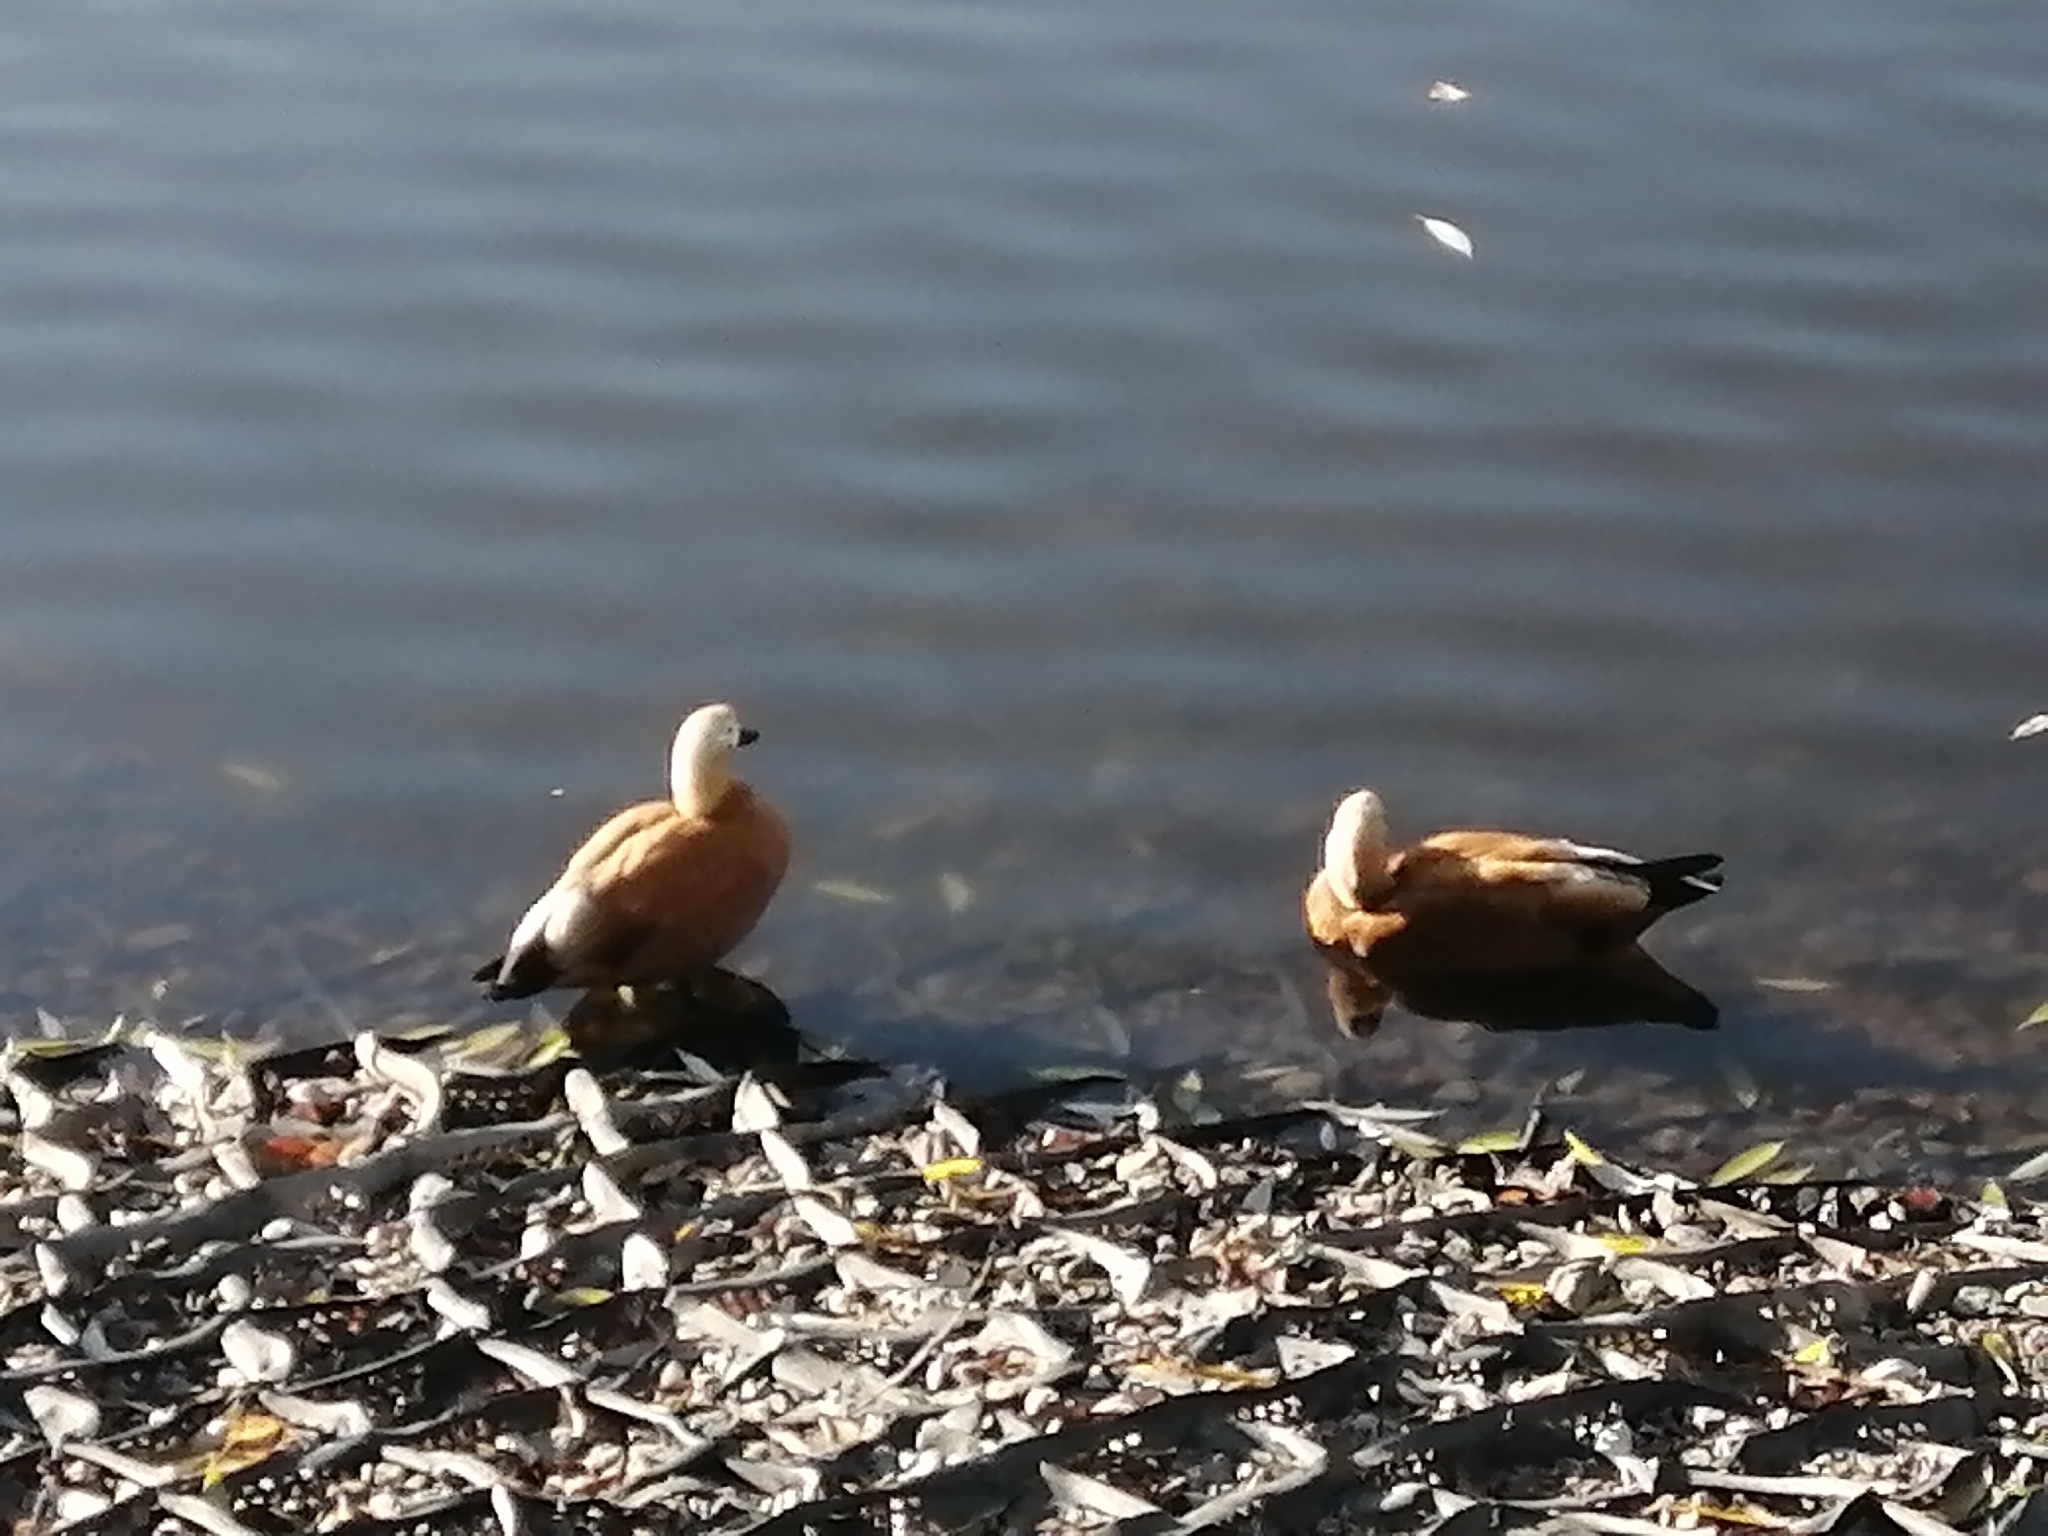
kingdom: Animalia
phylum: Chordata
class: Aves
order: Anseriformes
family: Anatidae
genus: Tadorna
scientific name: Tadorna ferruginea
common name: Ruddy shelduck
